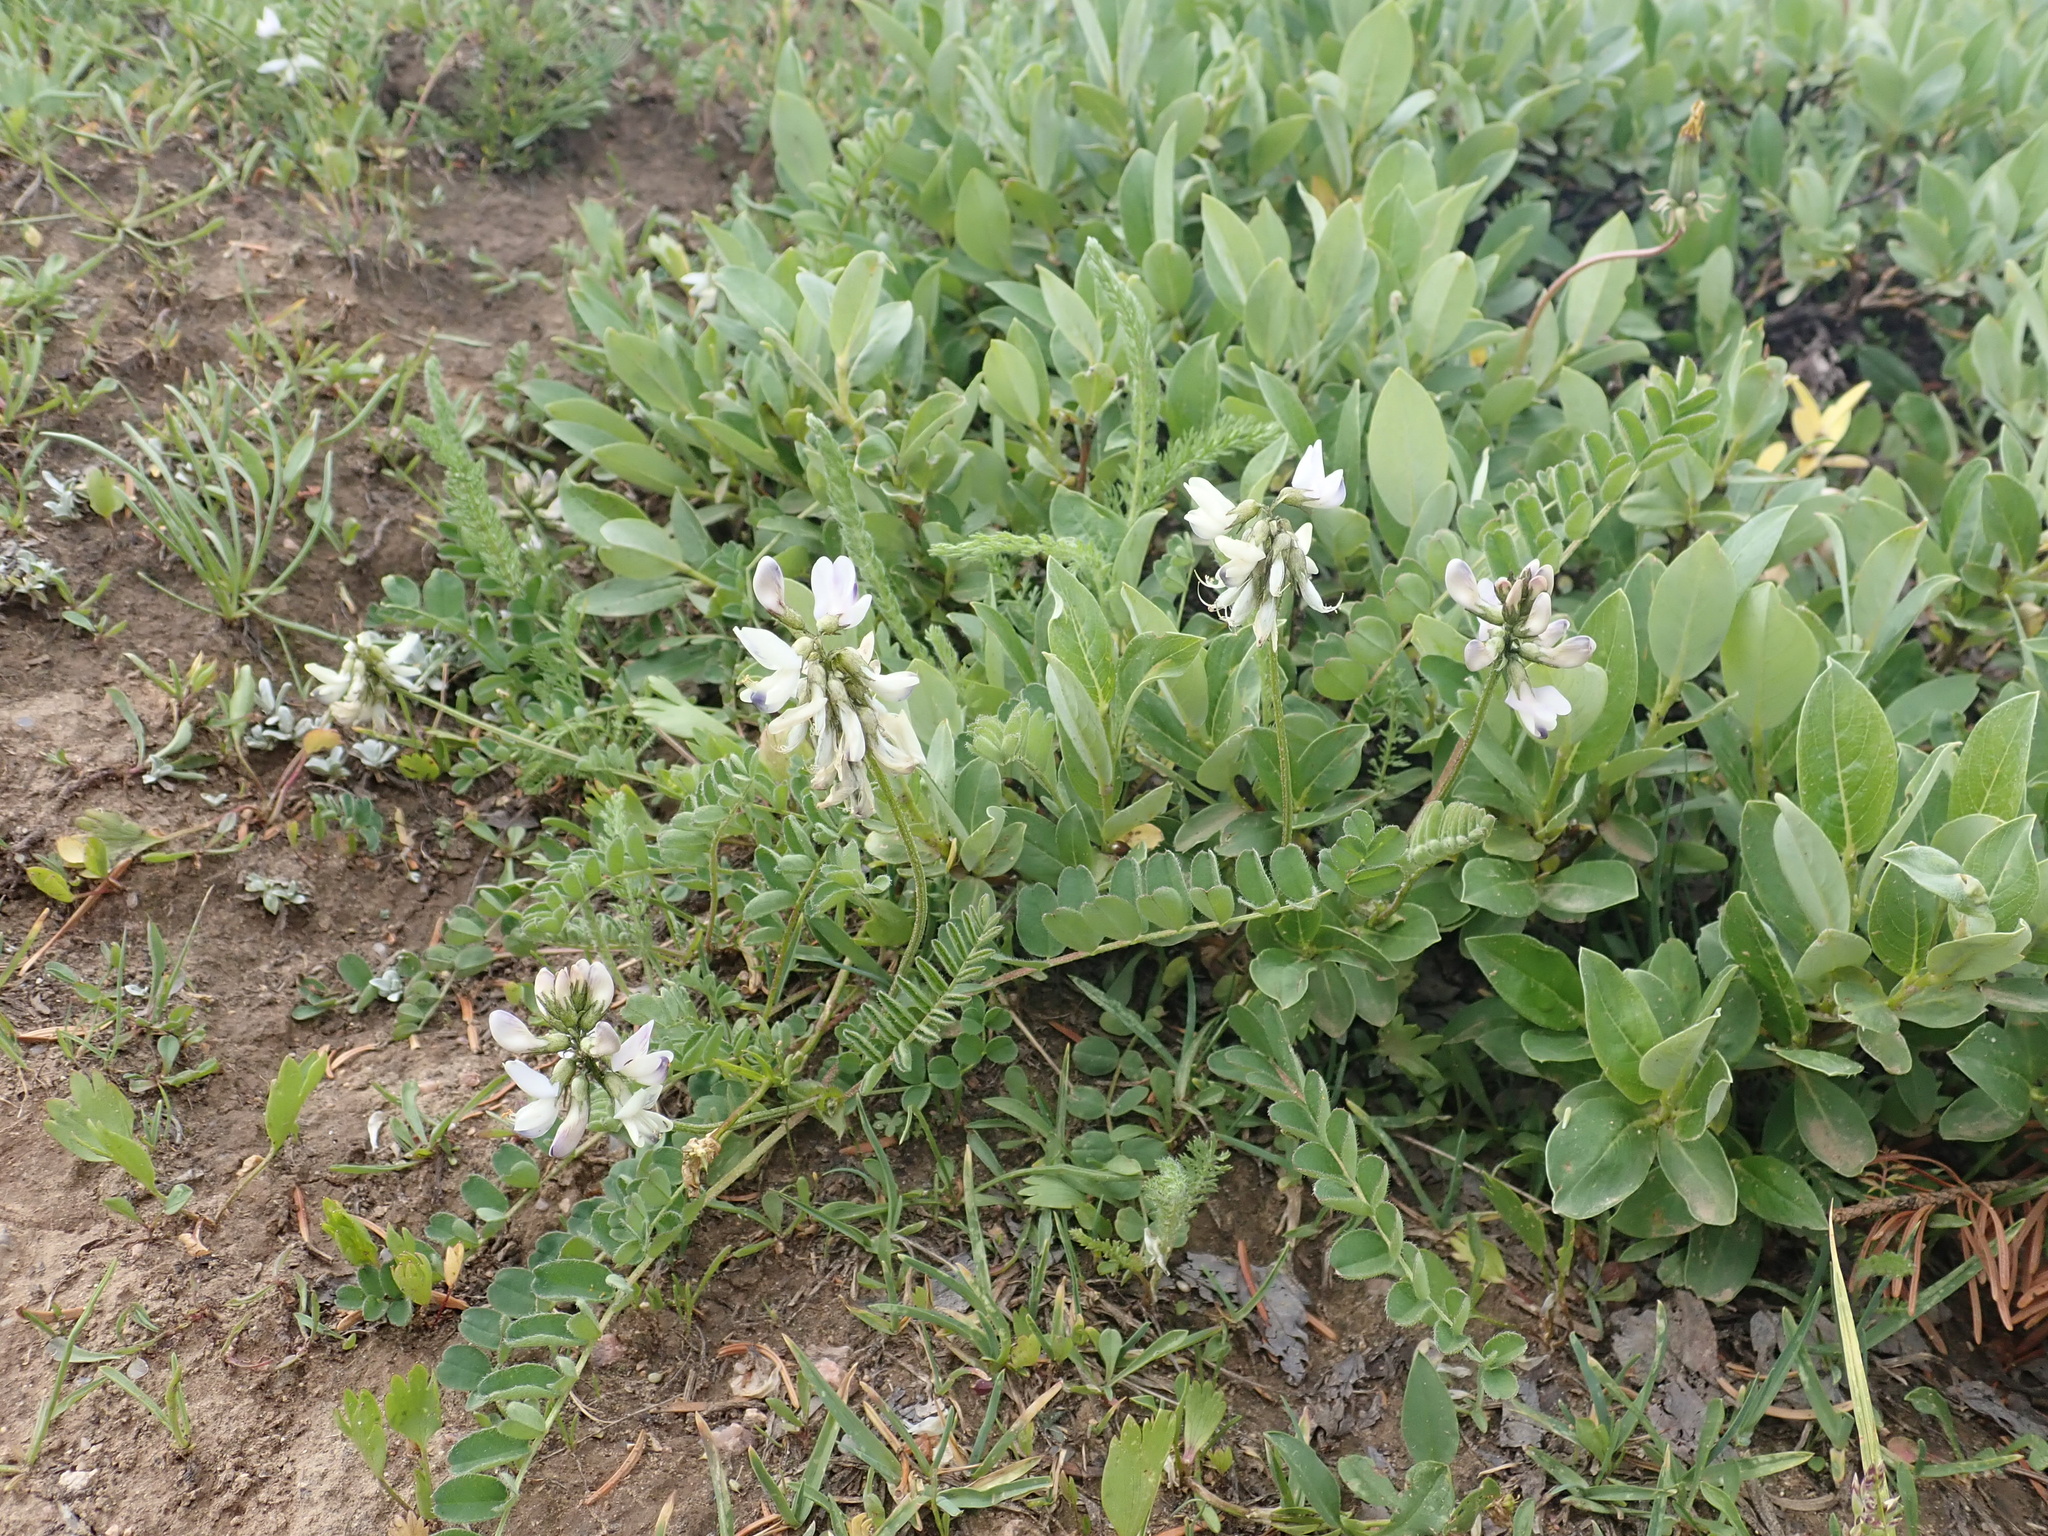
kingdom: Plantae
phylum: Tracheophyta
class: Magnoliopsida
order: Fabales
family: Fabaceae
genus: Astragalus
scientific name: Astragalus alpinus
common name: Alpine milk-vetch
